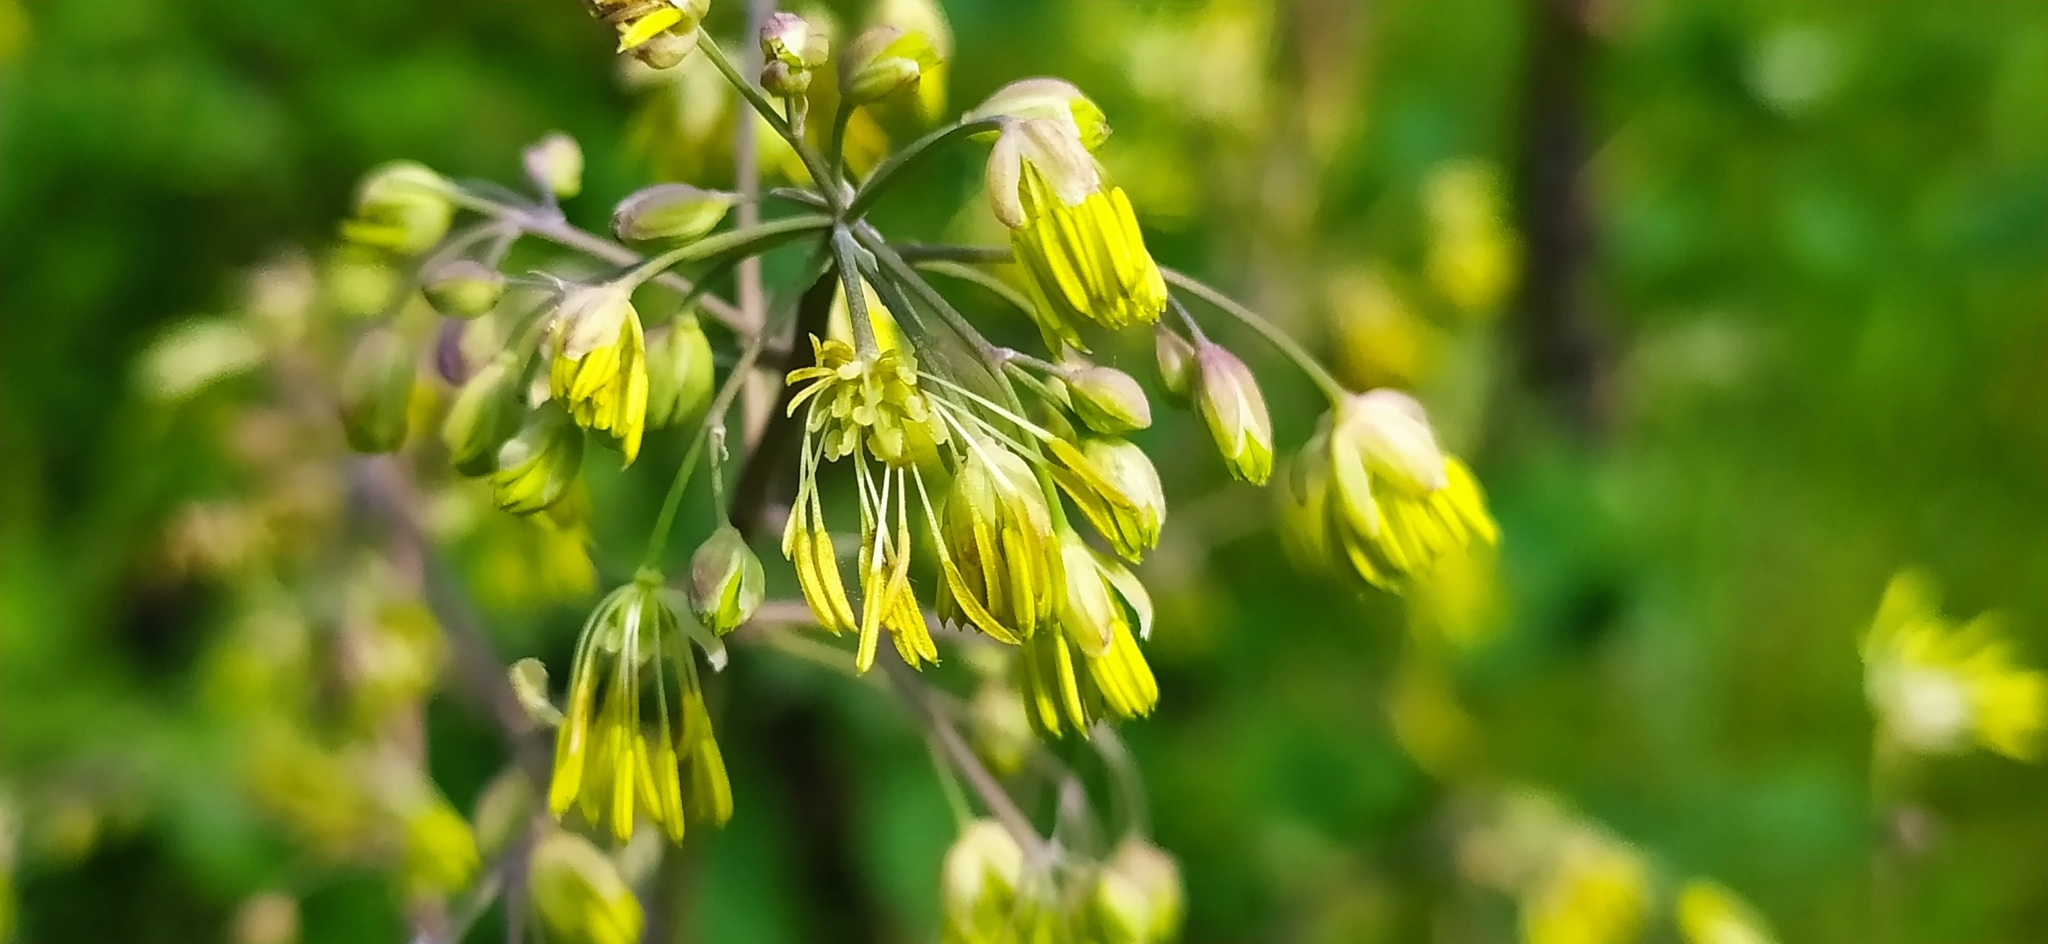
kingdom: Plantae
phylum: Tracheophyta
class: Magnoliopsida
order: Ranunculales
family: Ranunculaceae
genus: Thalictrum
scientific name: Thalictrum minus
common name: Lesser meadow-rue
